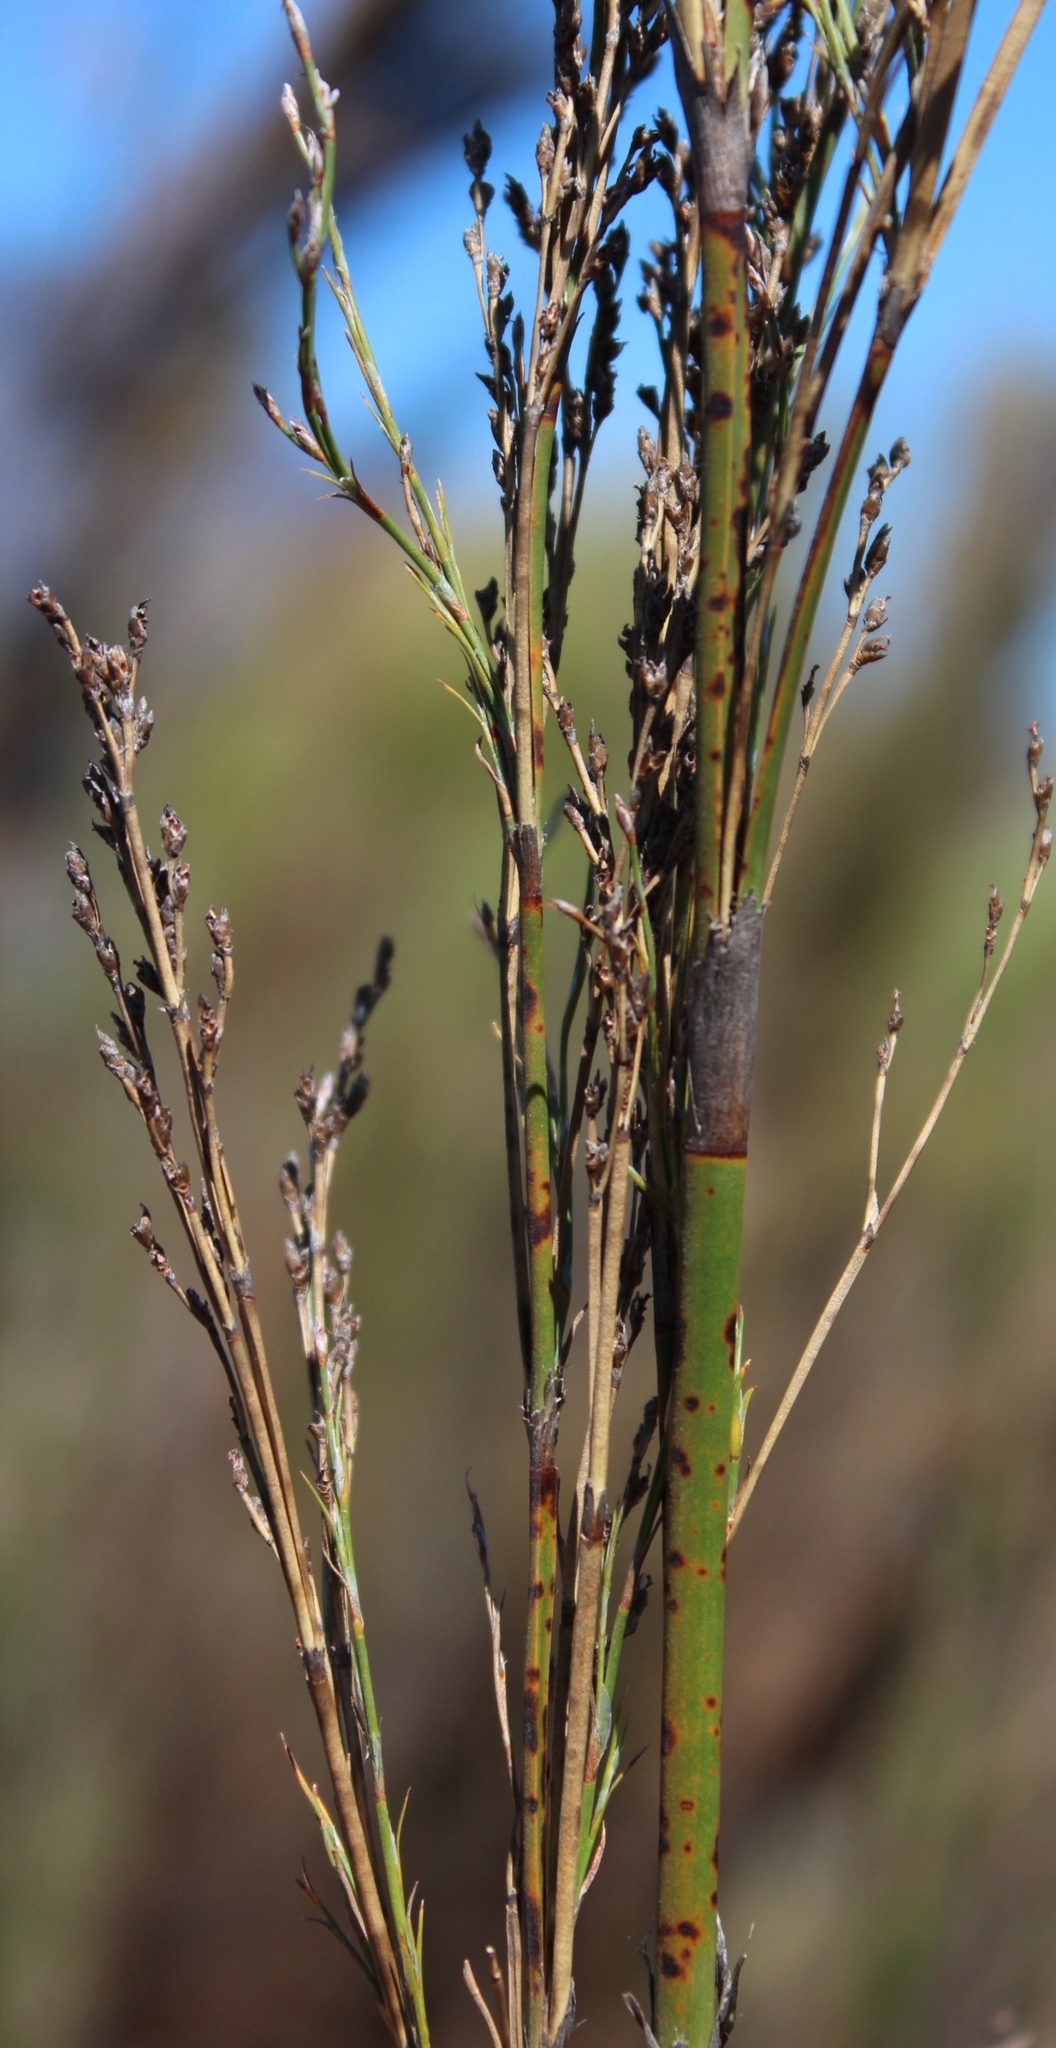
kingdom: Plantae
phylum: Tracheophyta
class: Liliopsida
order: Poales
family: Restionaceae
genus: Restio
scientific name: Restio paniculatus
